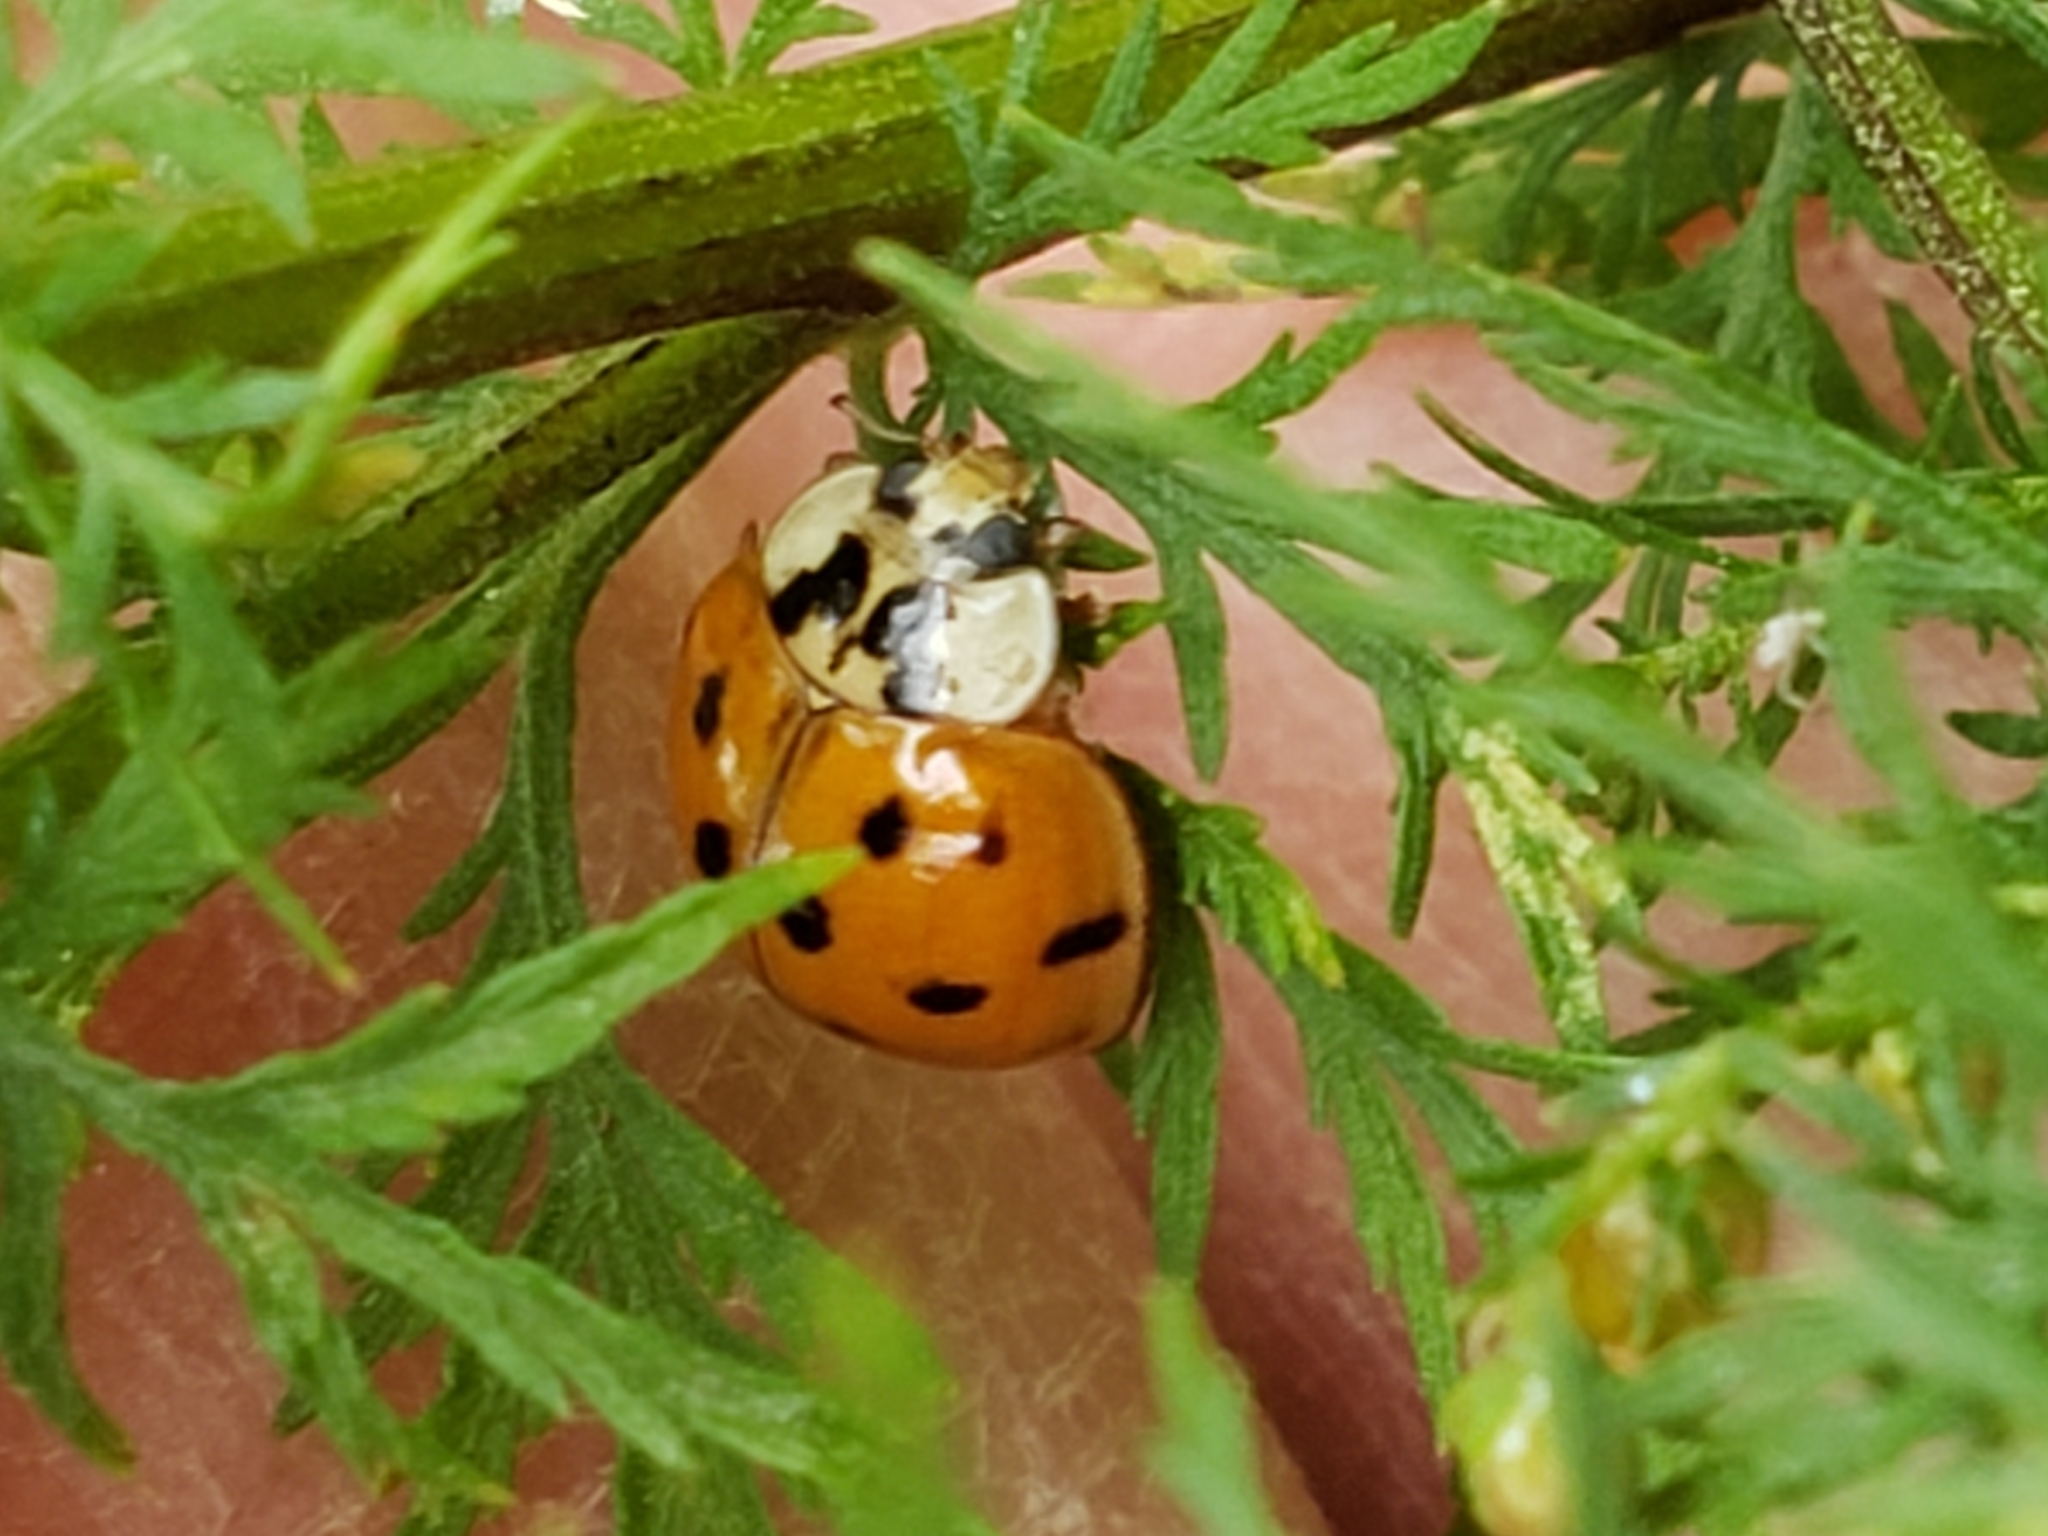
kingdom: Animalia
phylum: Arthropoda
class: Insecta
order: Coleoptera
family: Coccinellidae
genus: Harmonia
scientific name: Harmonia axyridis
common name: Harlequin ladybird
